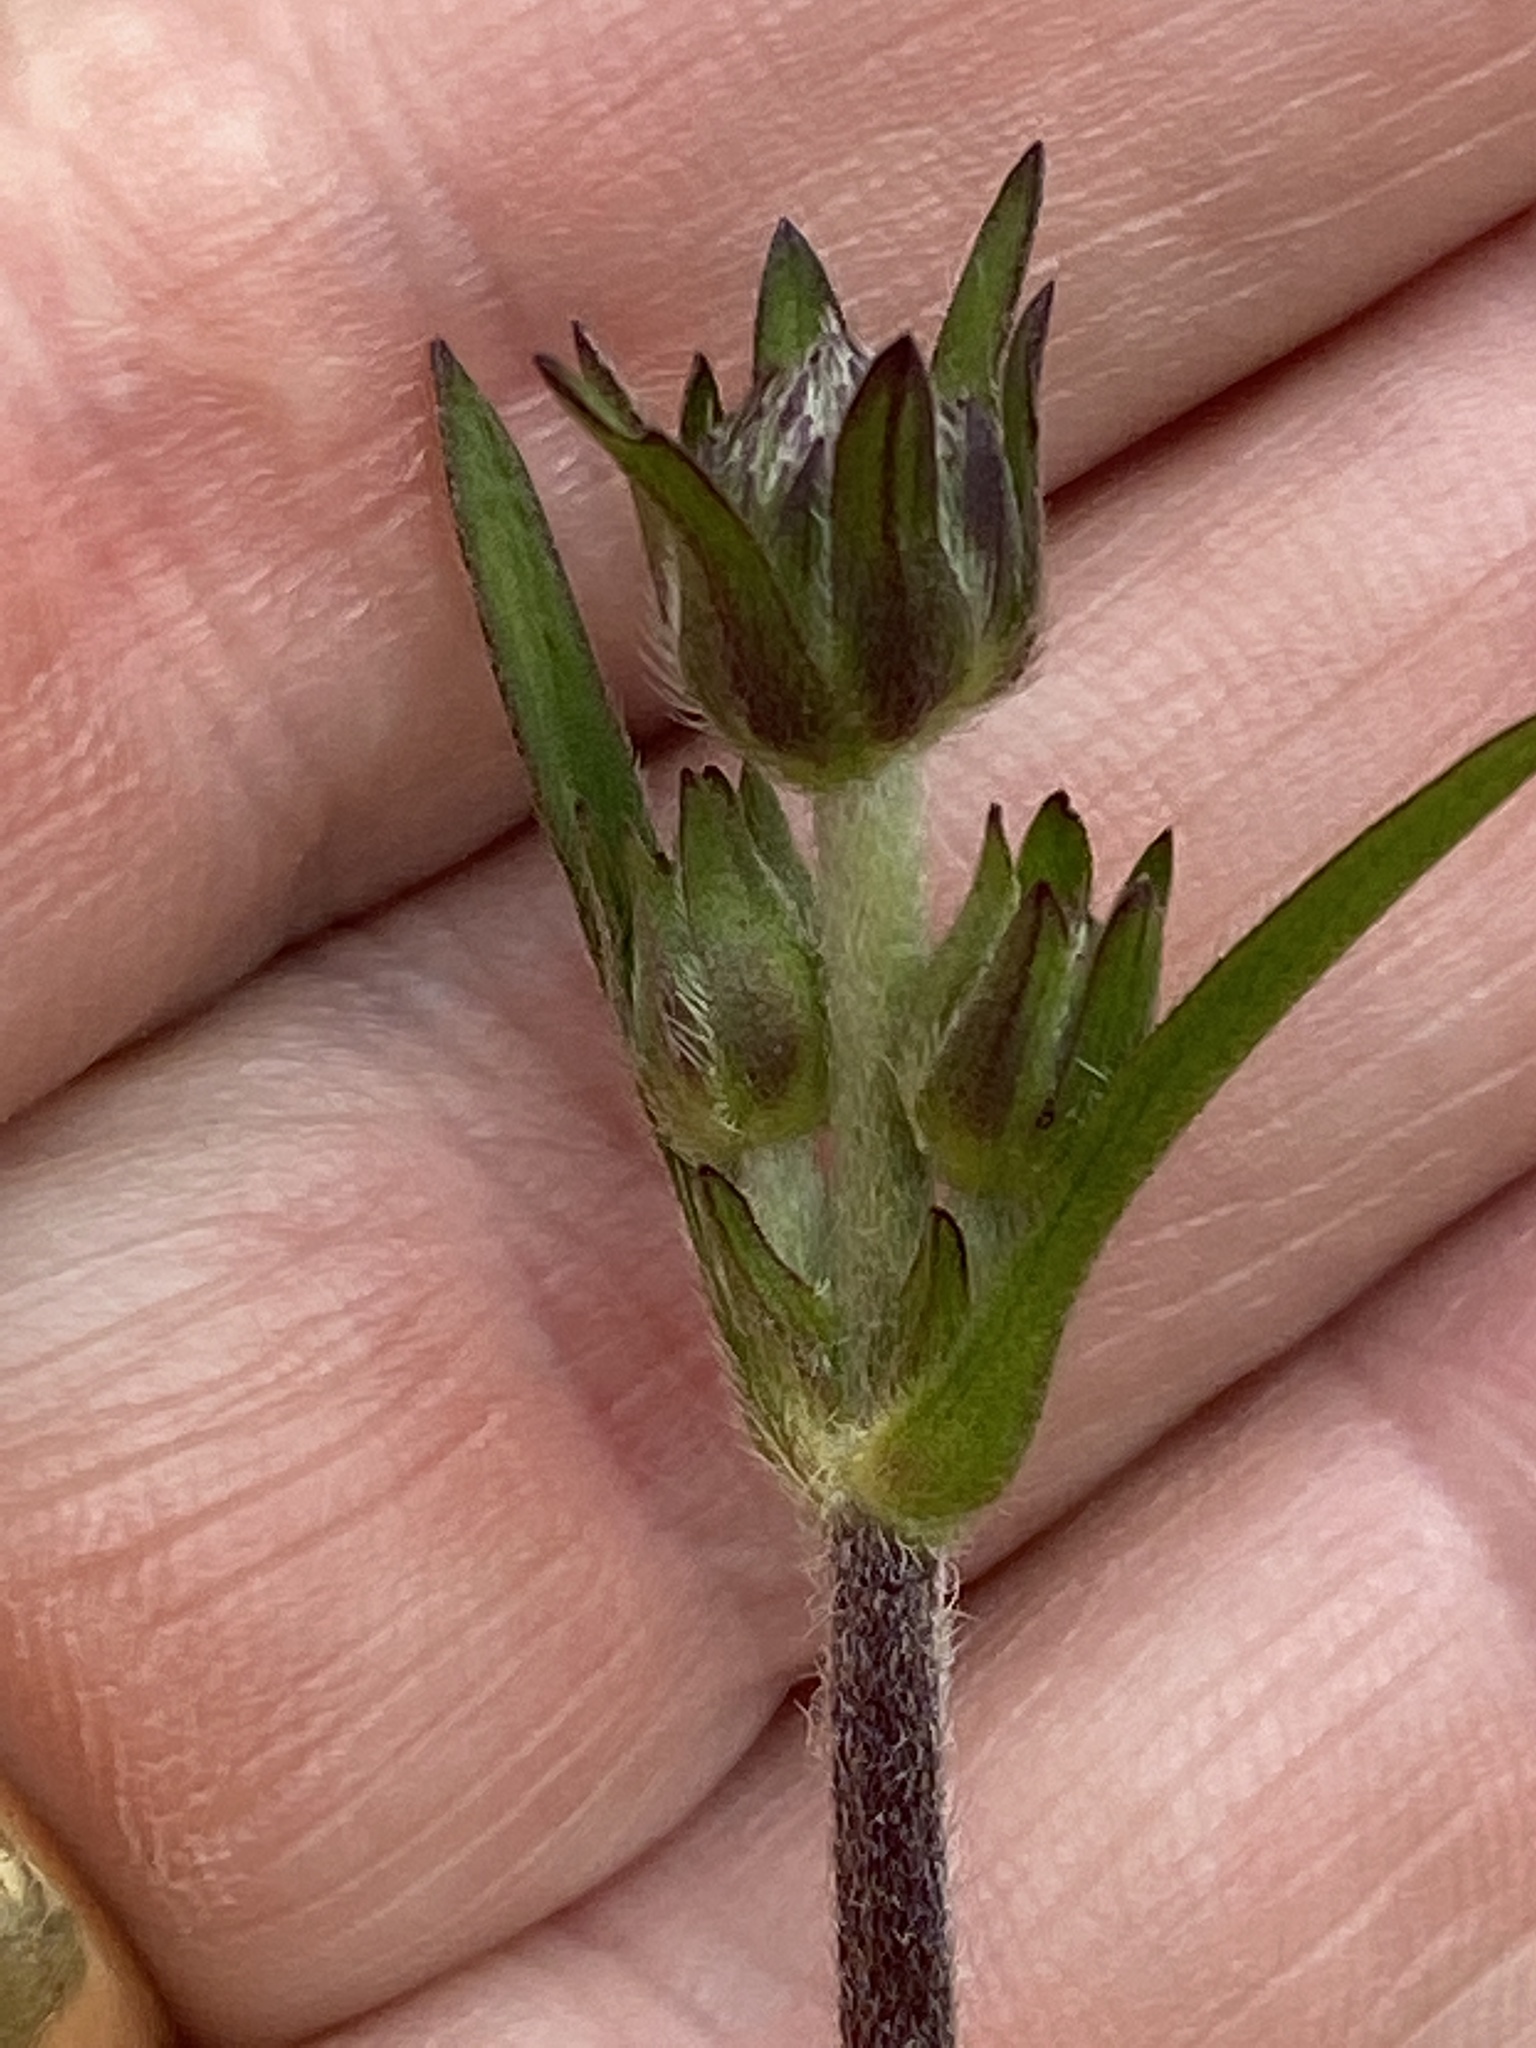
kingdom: Plantae
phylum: Tracheophyta
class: Magnoliopsida
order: Dipsacales
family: Caprifoliaceae
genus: Knautia
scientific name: Knautia arvensis
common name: Field scabiosa
